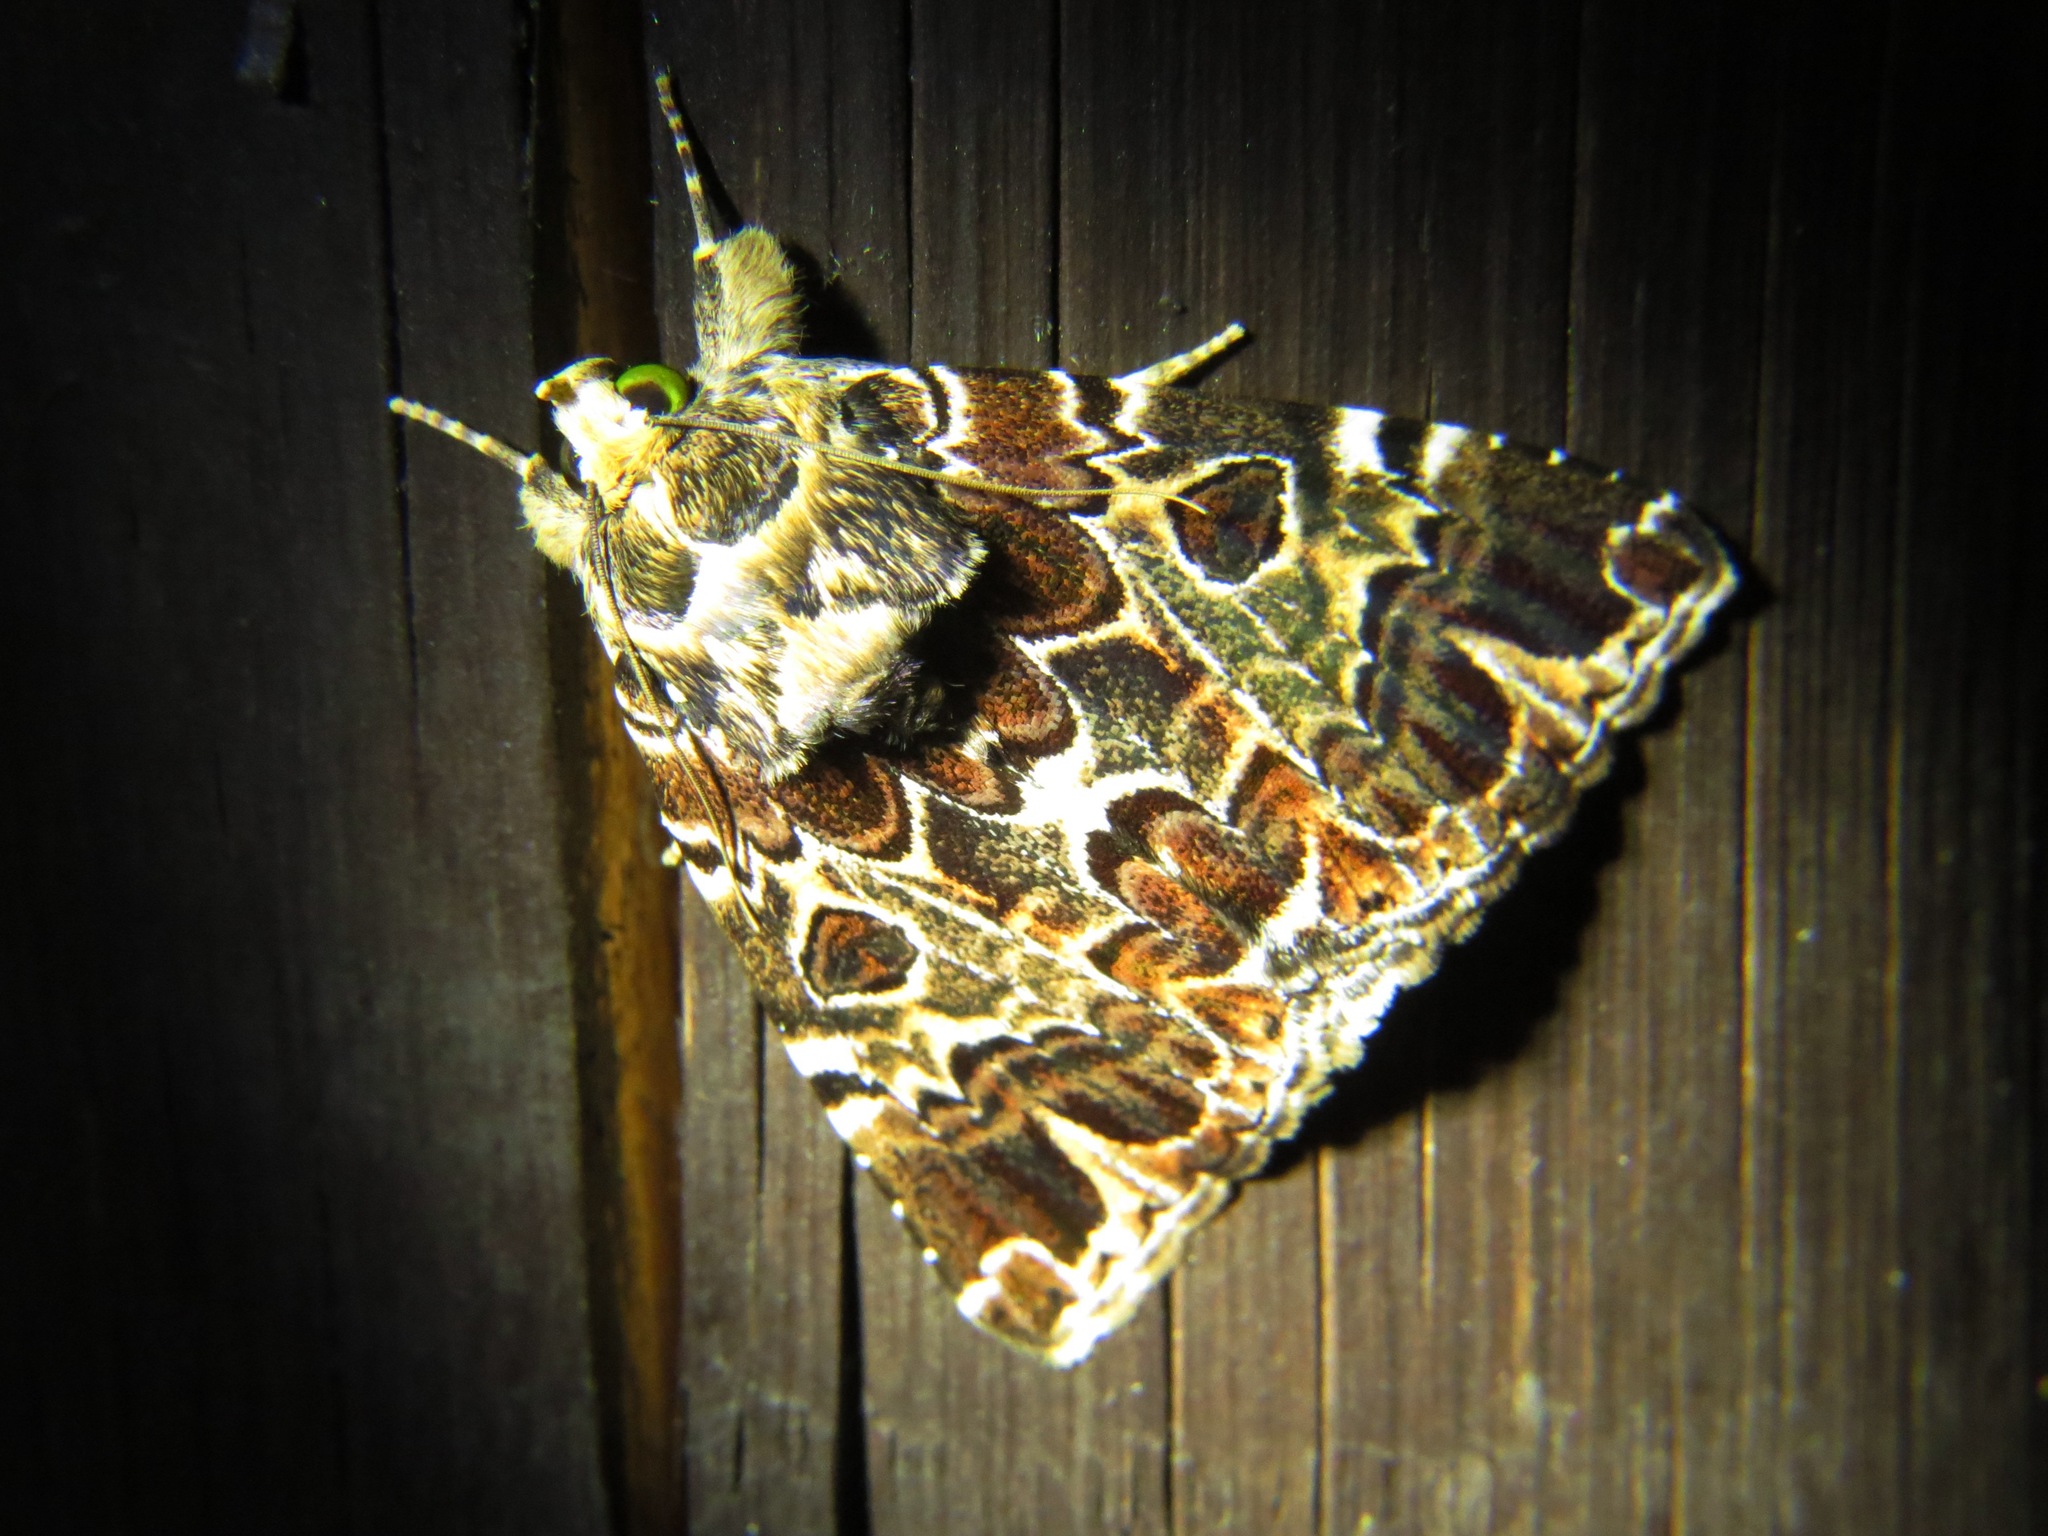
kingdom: Animalia
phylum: Arthropoda
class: Insecta
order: Lepidoptera
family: Erebidae
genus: Tolna
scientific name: Tolna complicata
